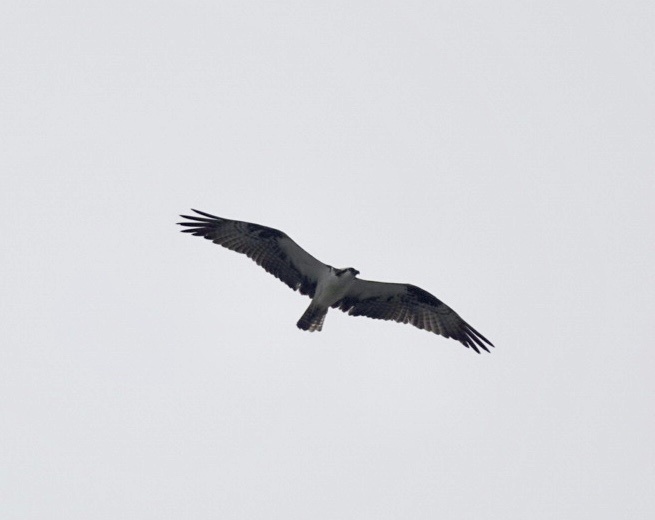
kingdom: Animalia
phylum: Chordata
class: Aves
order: Accipitriformes
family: Pandionidae
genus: Pandion
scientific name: Pandion haliaetus
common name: Osprey
